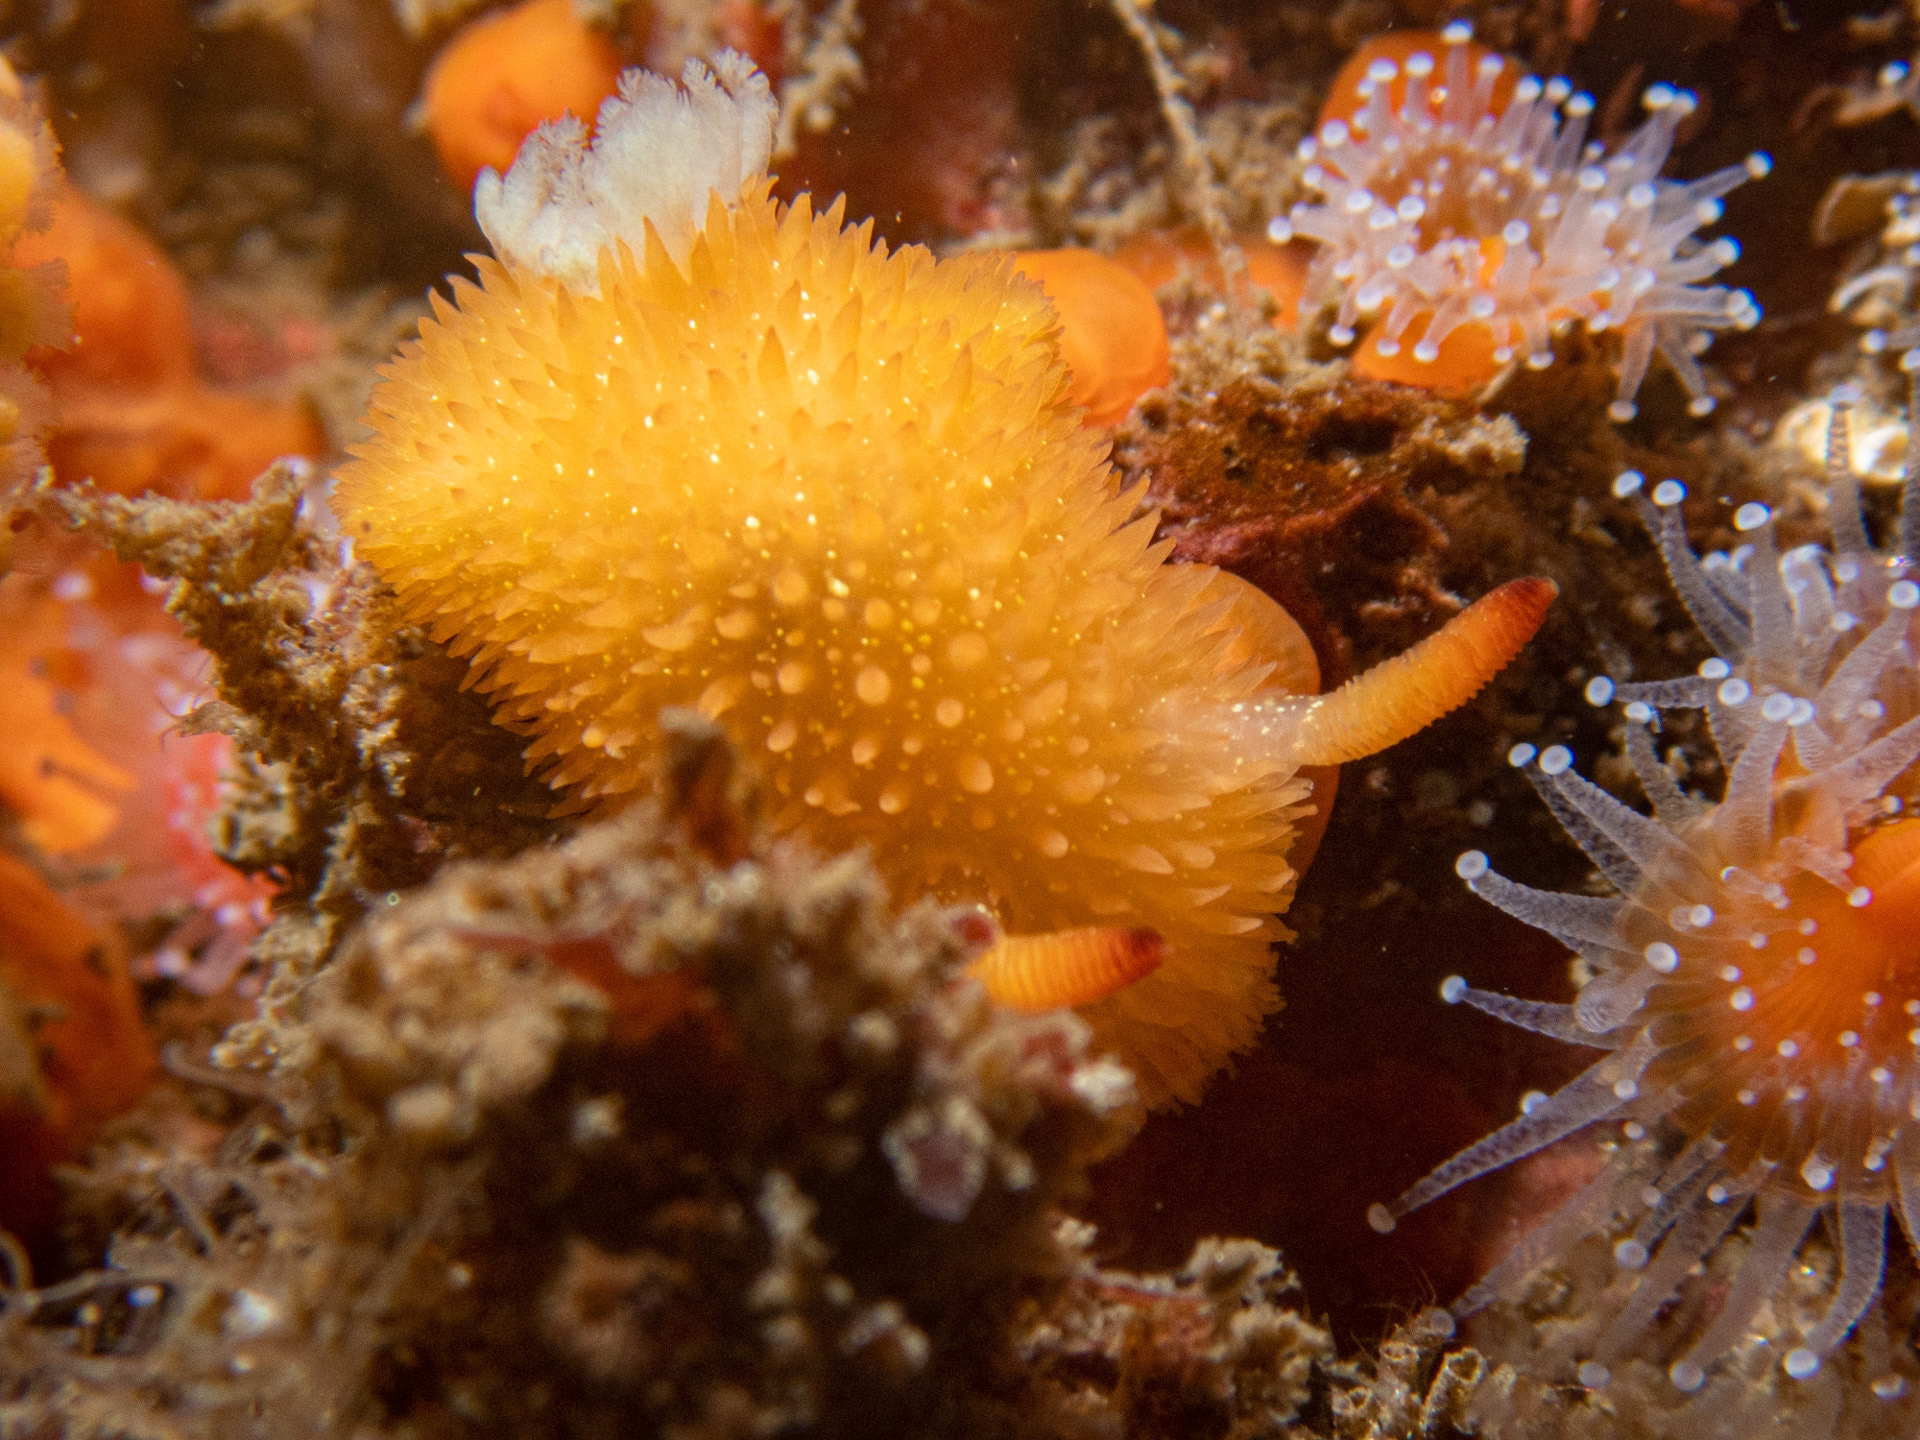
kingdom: Animalia
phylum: Mollusca
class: Gastropoda
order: Nudibranchia
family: Onchidorididae
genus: Acanthodoris
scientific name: Acanthodoris lutea
